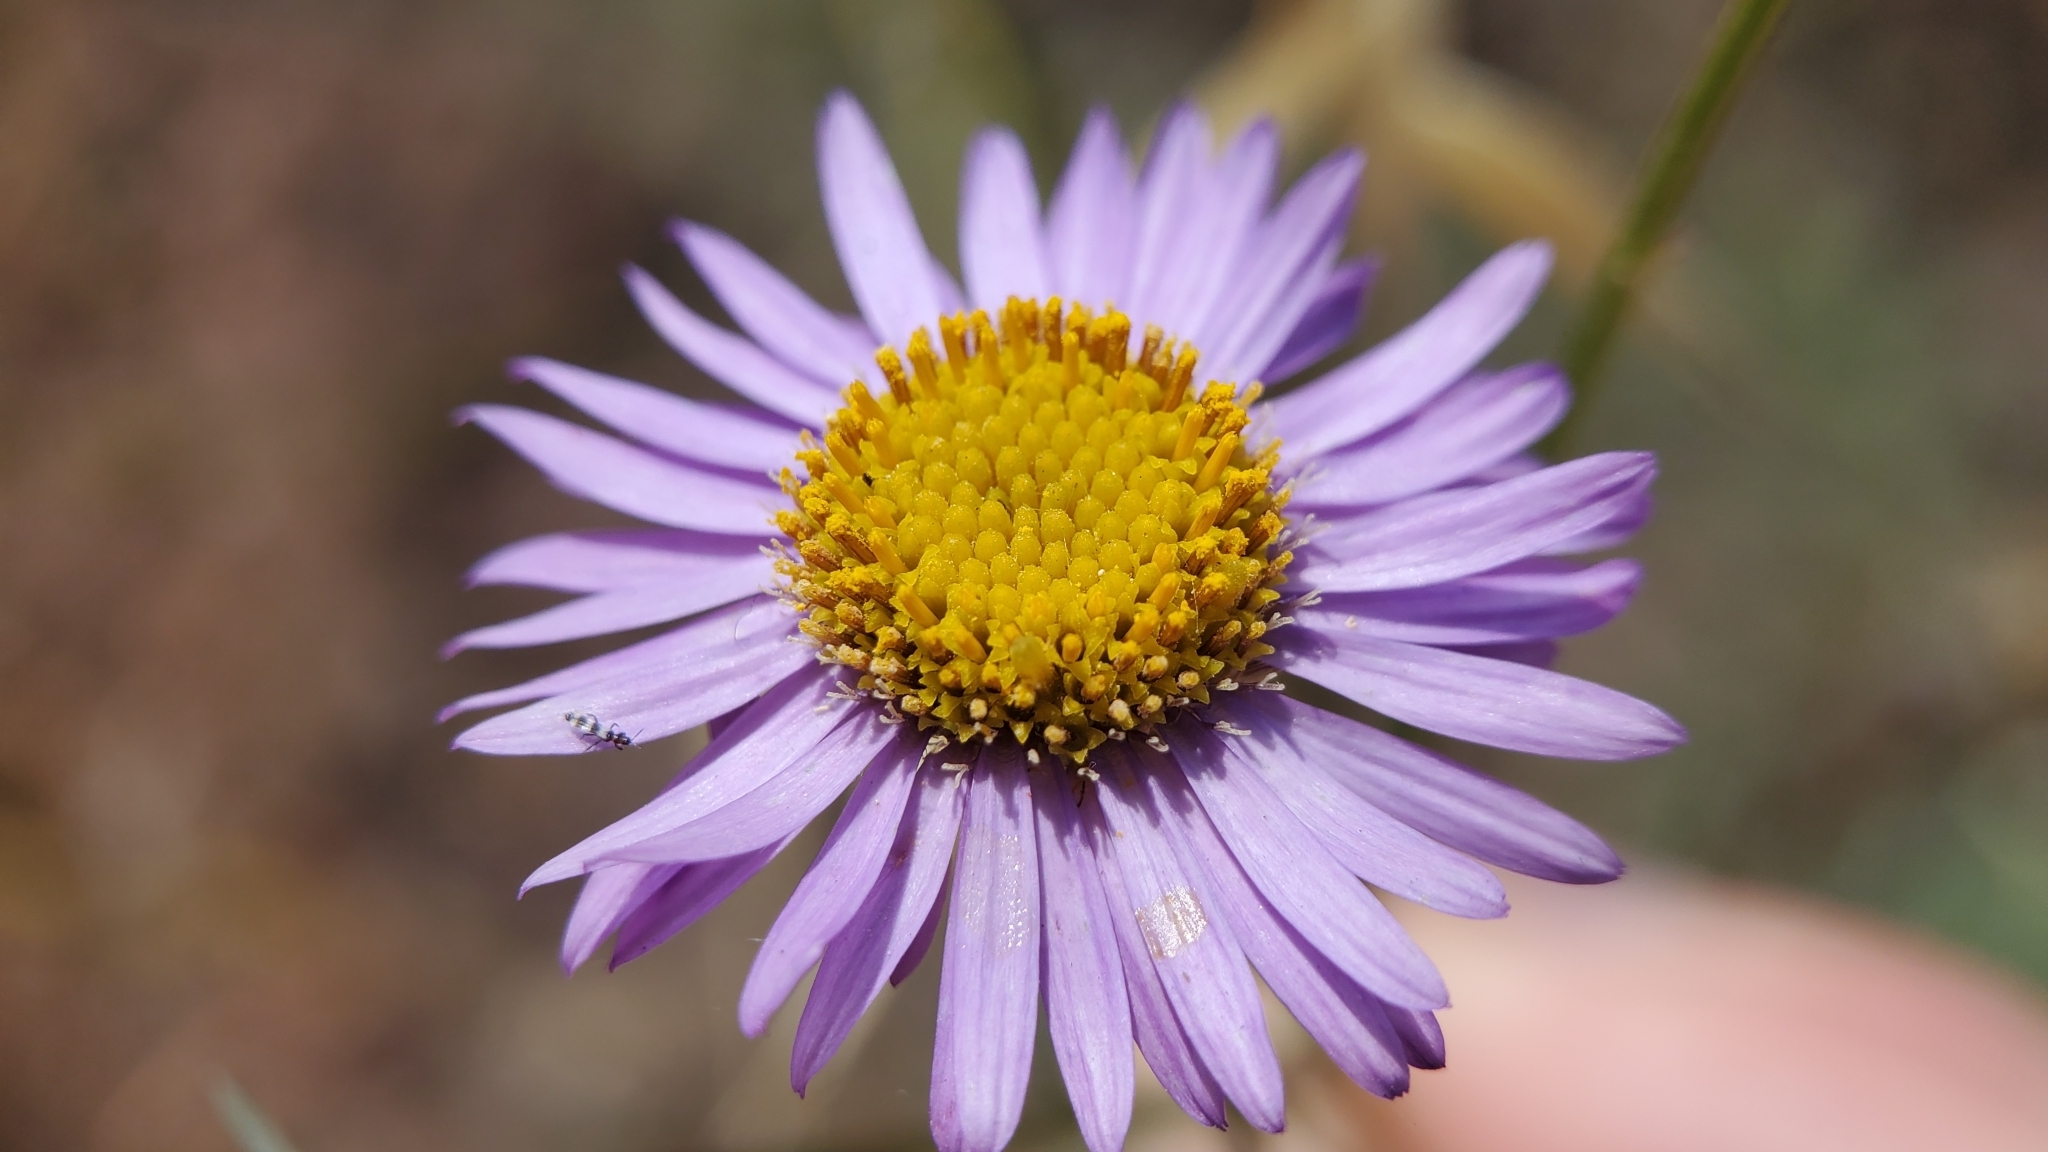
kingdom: Plantae
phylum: Tracheophyta
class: Magnoliopsida
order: Asterales
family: Asteraceae
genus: Erigeron
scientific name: Erigeron foliosus
